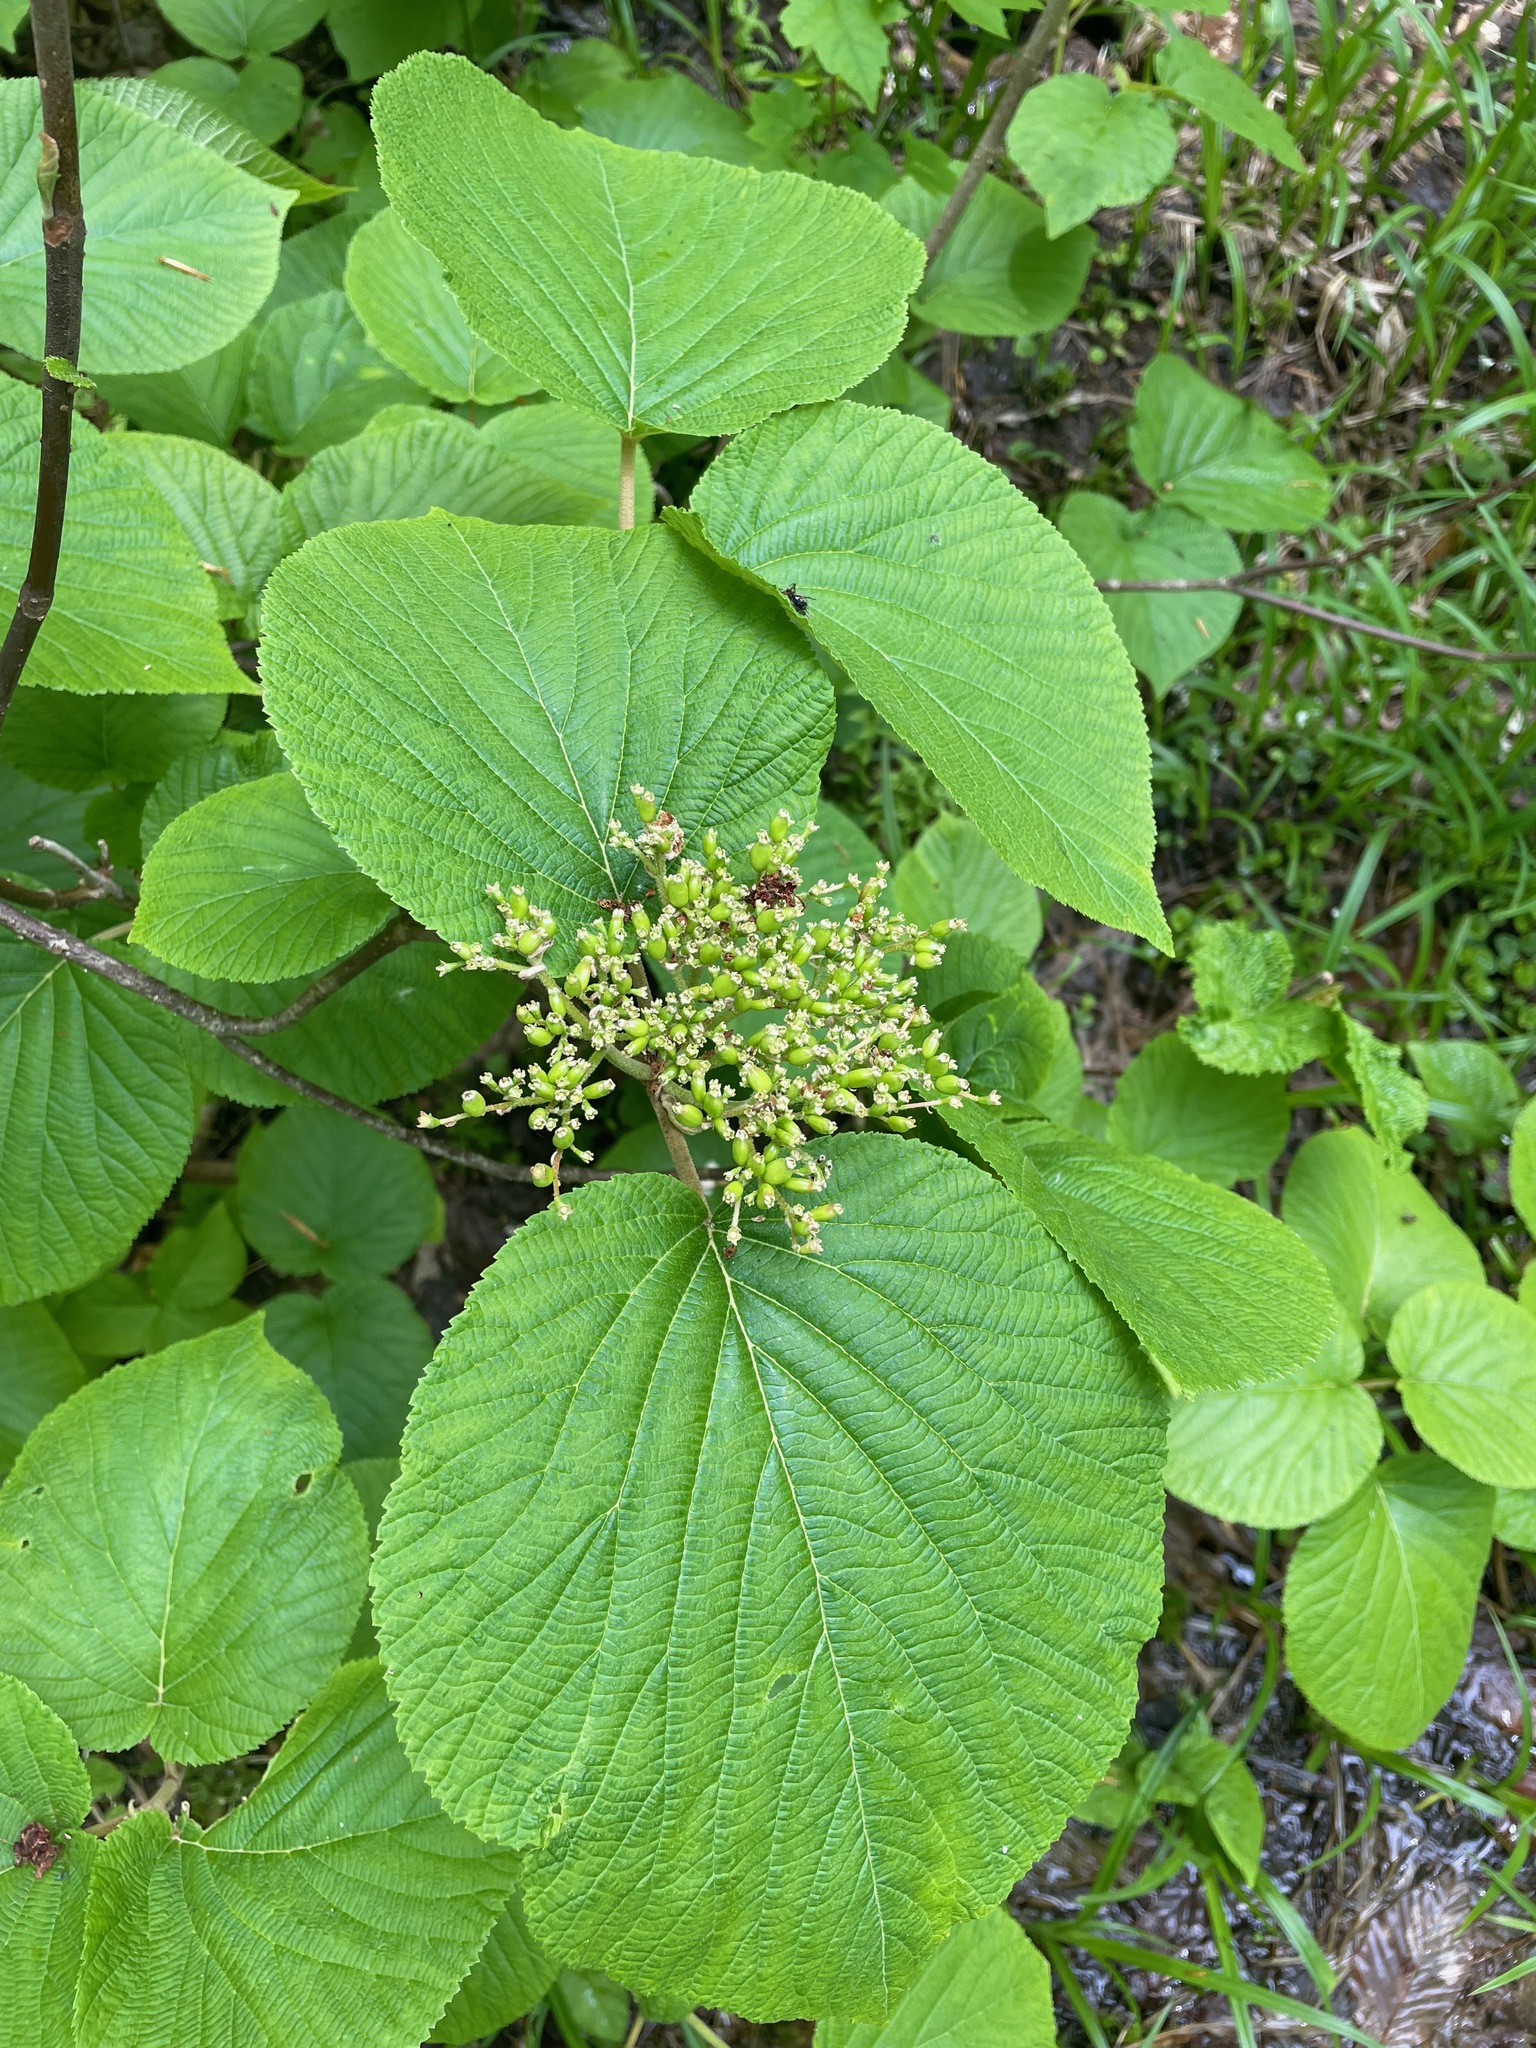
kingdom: Plantae
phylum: Tracheophyta
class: Magnoliopsida
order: Dipsacales
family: Viburnaceae
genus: Viburnum
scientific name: Viburnum lantanoides
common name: Hobblebush
